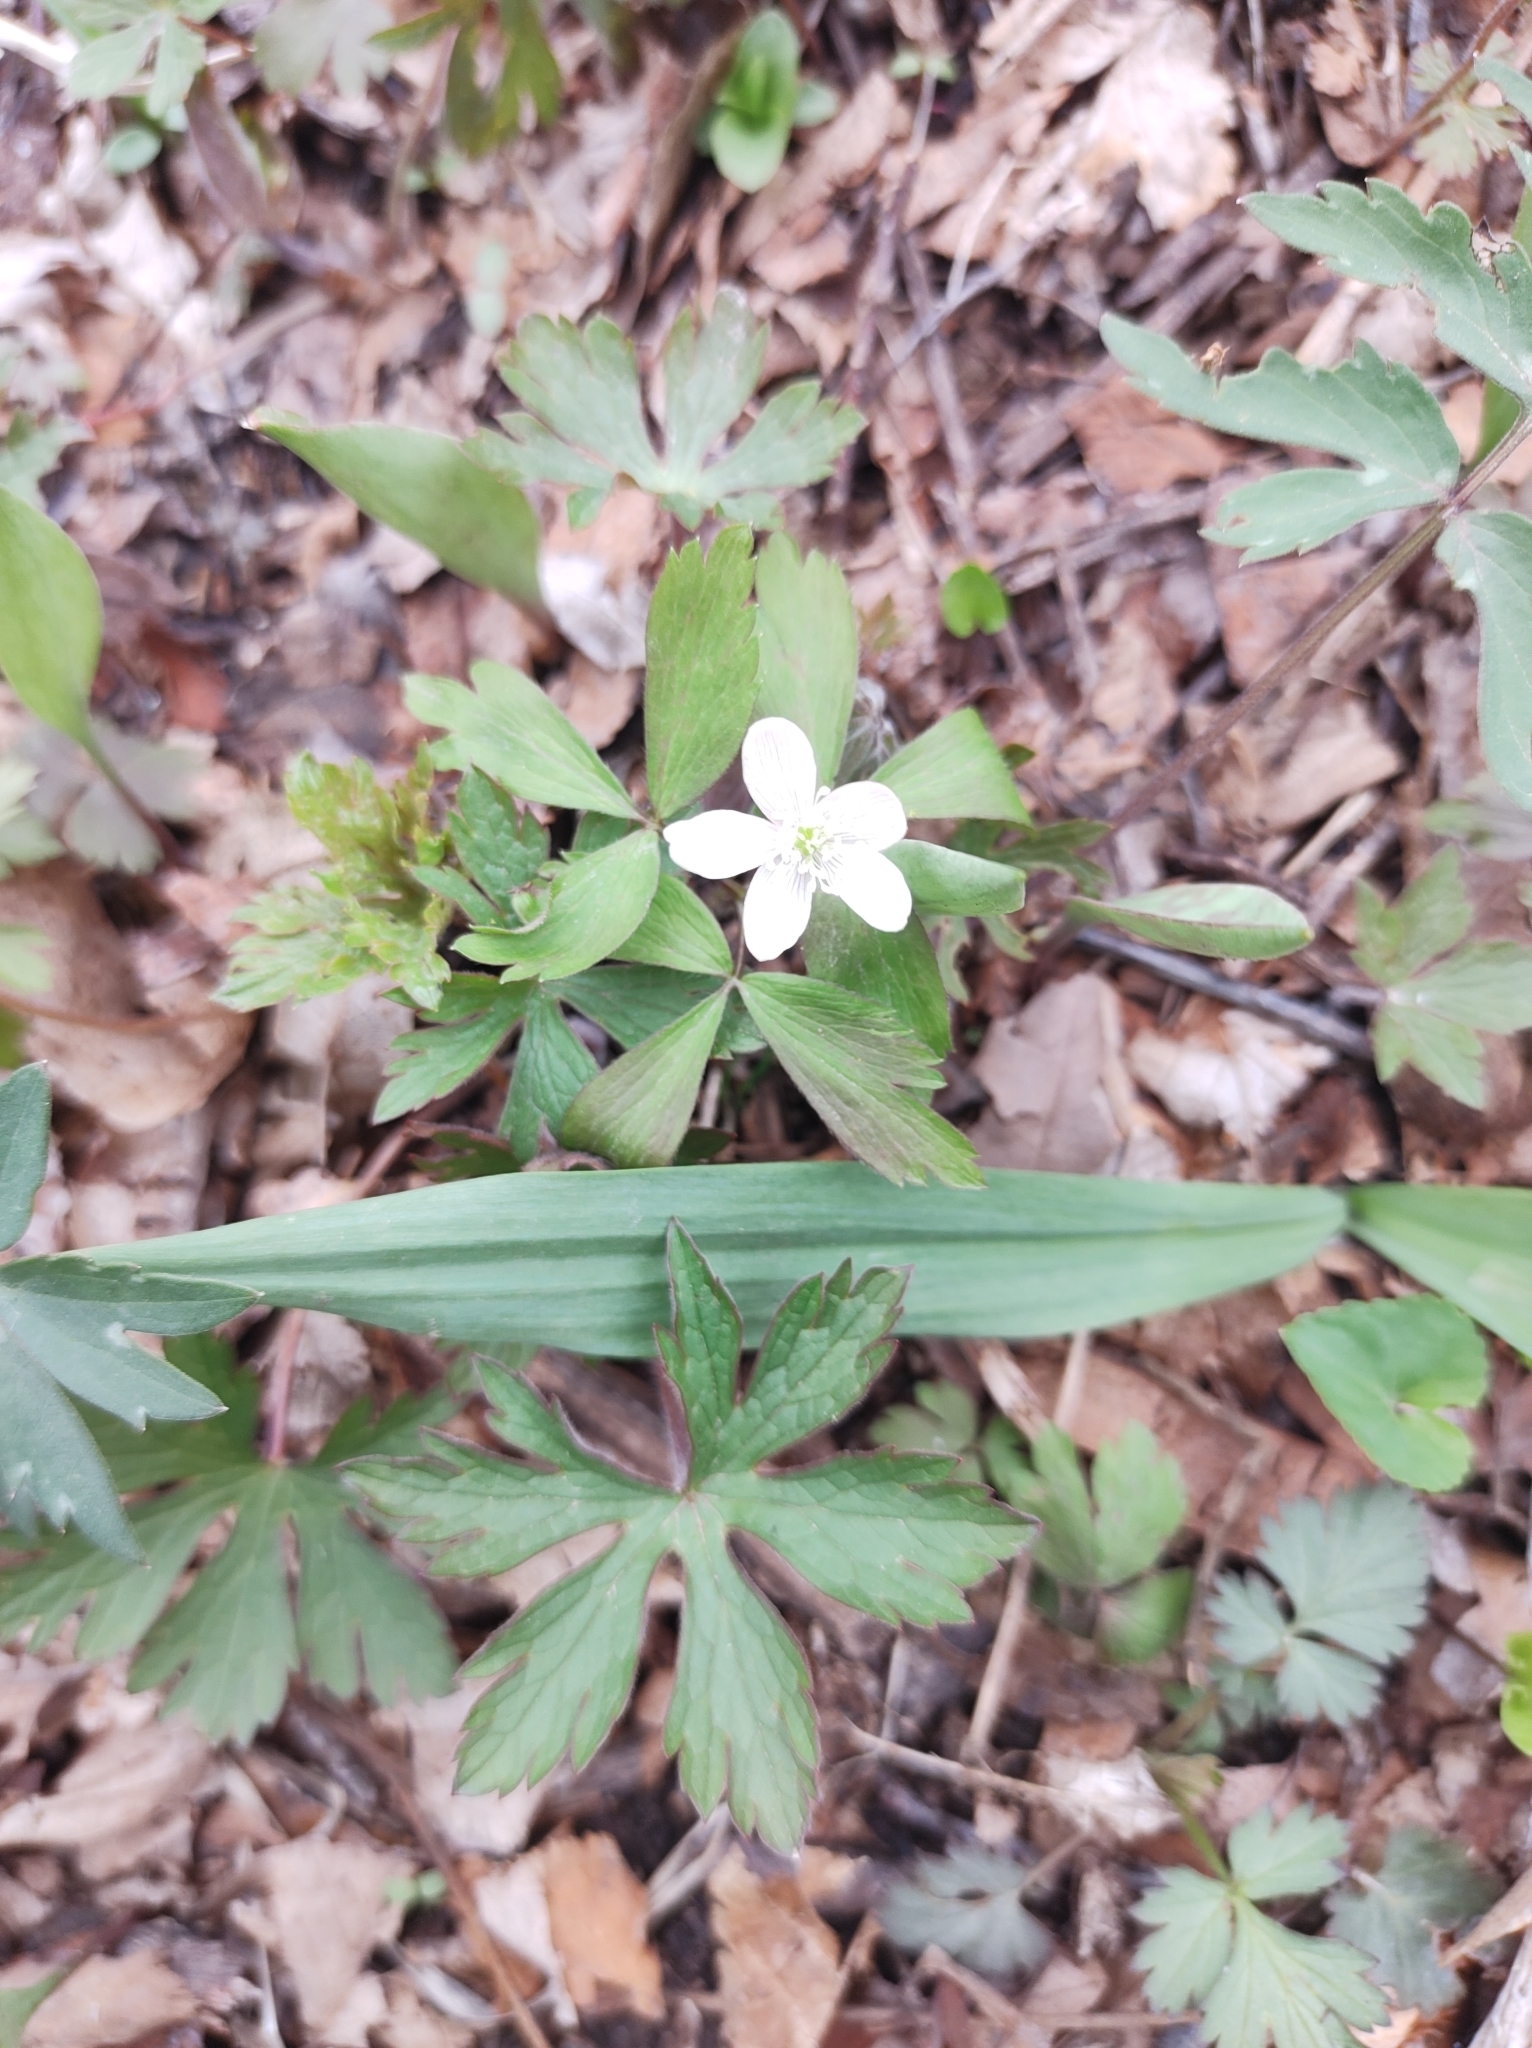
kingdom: Plantae
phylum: Tracheophyta
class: Magnoliopsida
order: Ranunculales
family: Ranunculaceae
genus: Anemone
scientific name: Anemone quinquefolia
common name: Wood anemone
